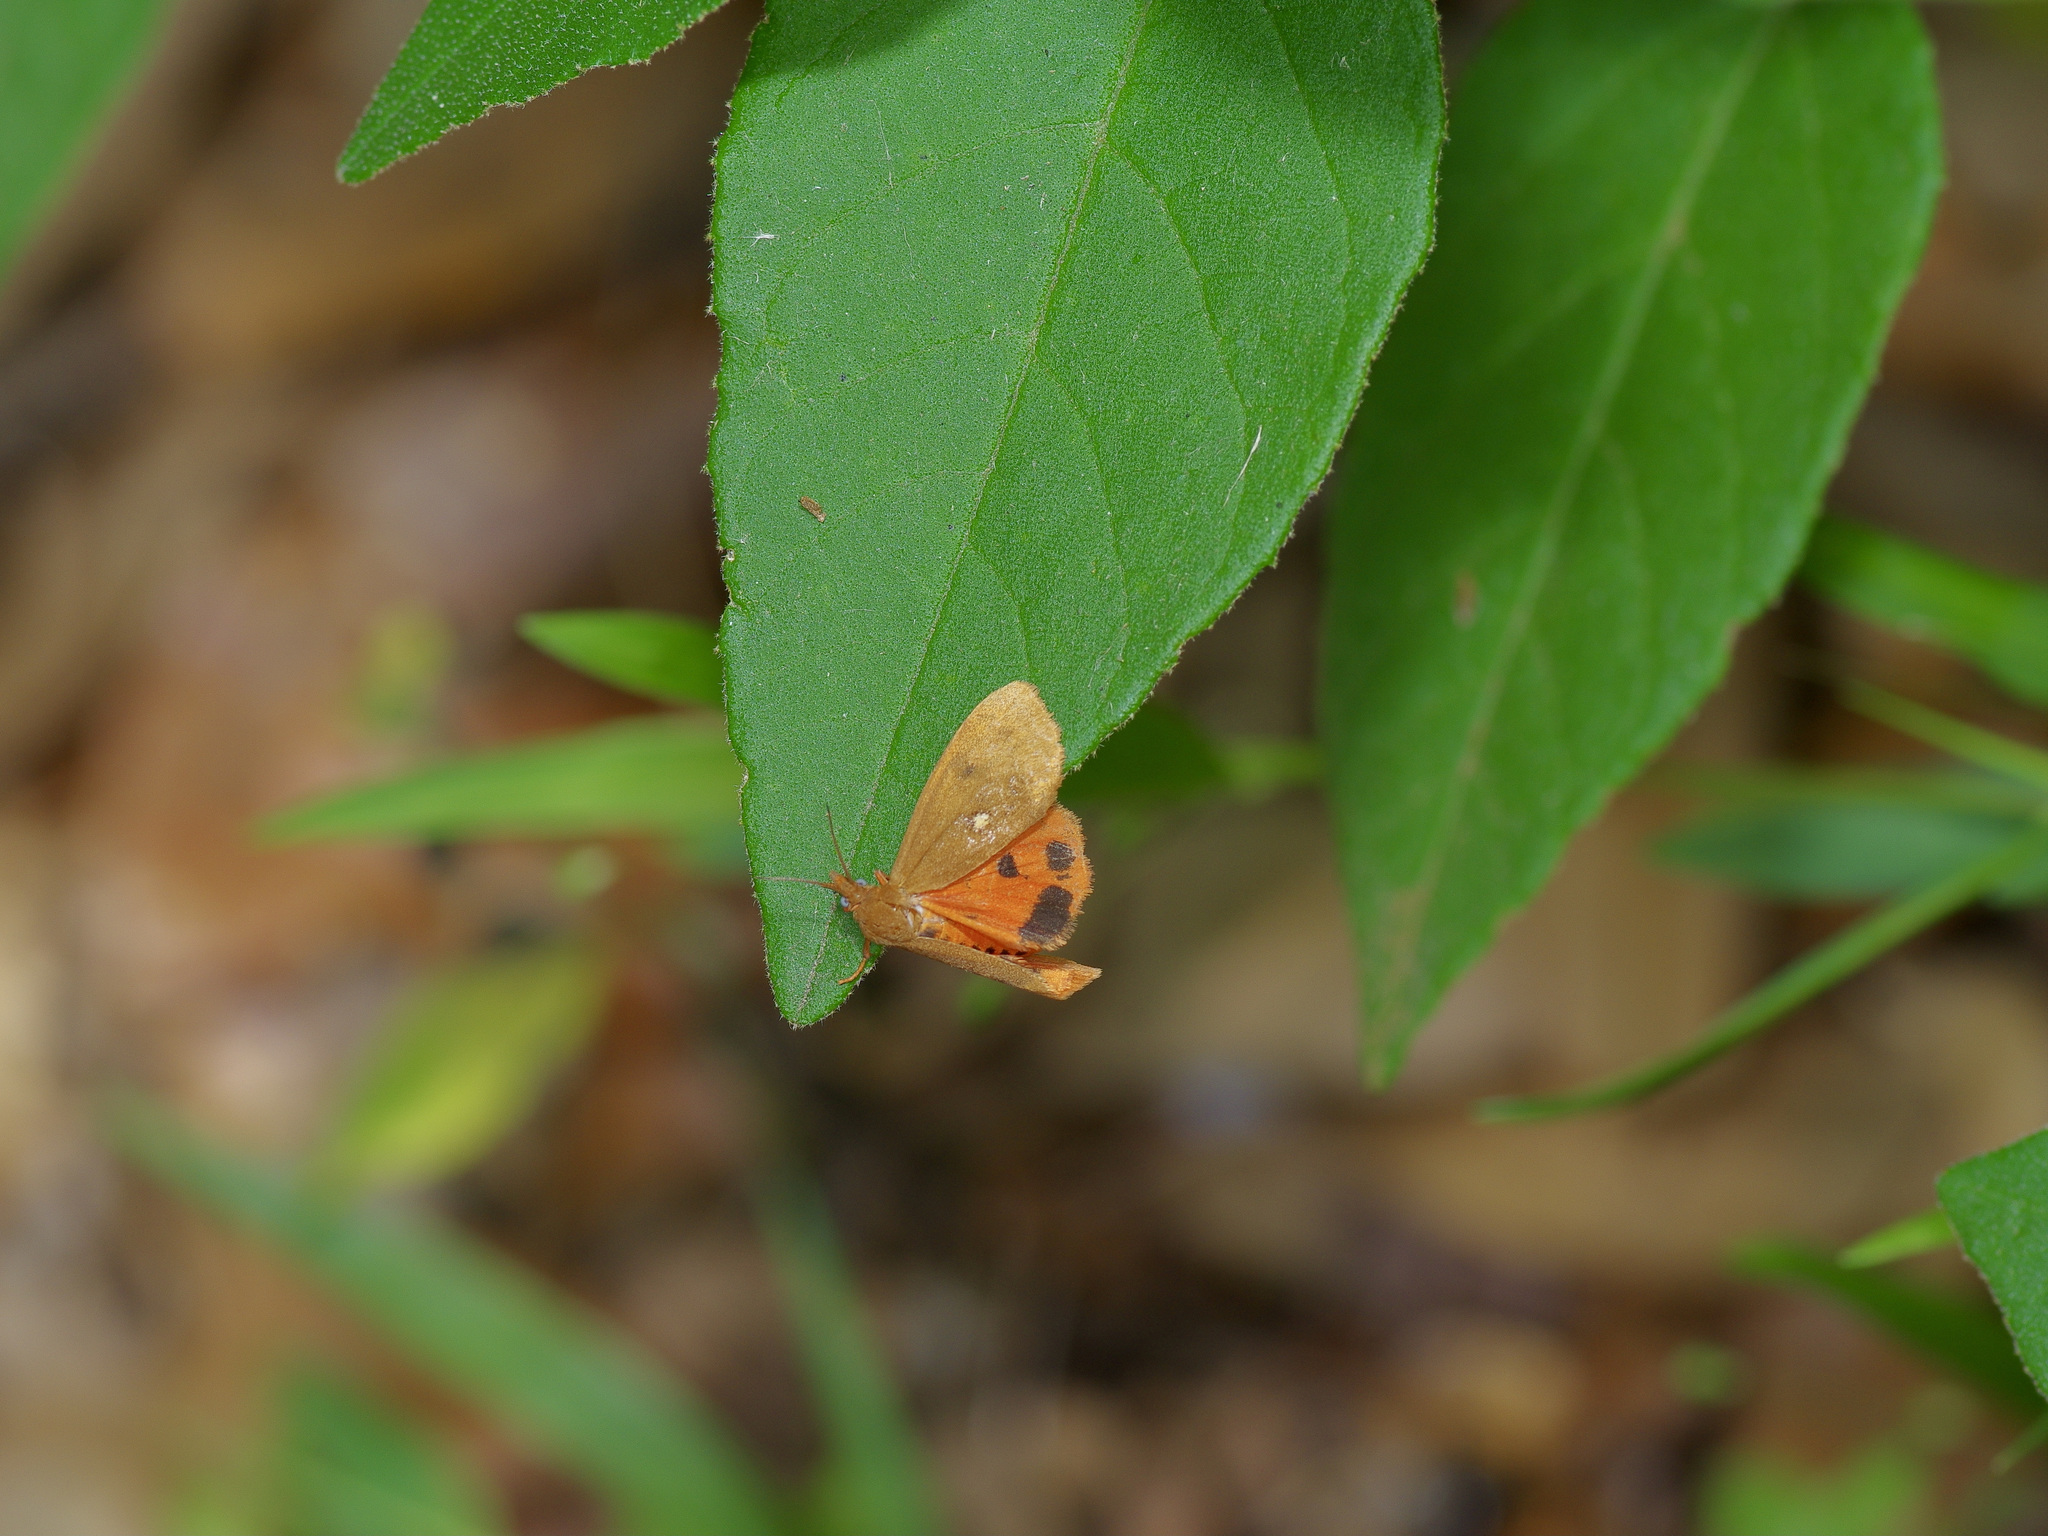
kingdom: Animalia
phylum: Arthropoda
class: Insecta
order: Lepidoptera
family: Erebidae
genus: Virbia
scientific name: Virbia aurantiaca
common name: Orange virbia moth
